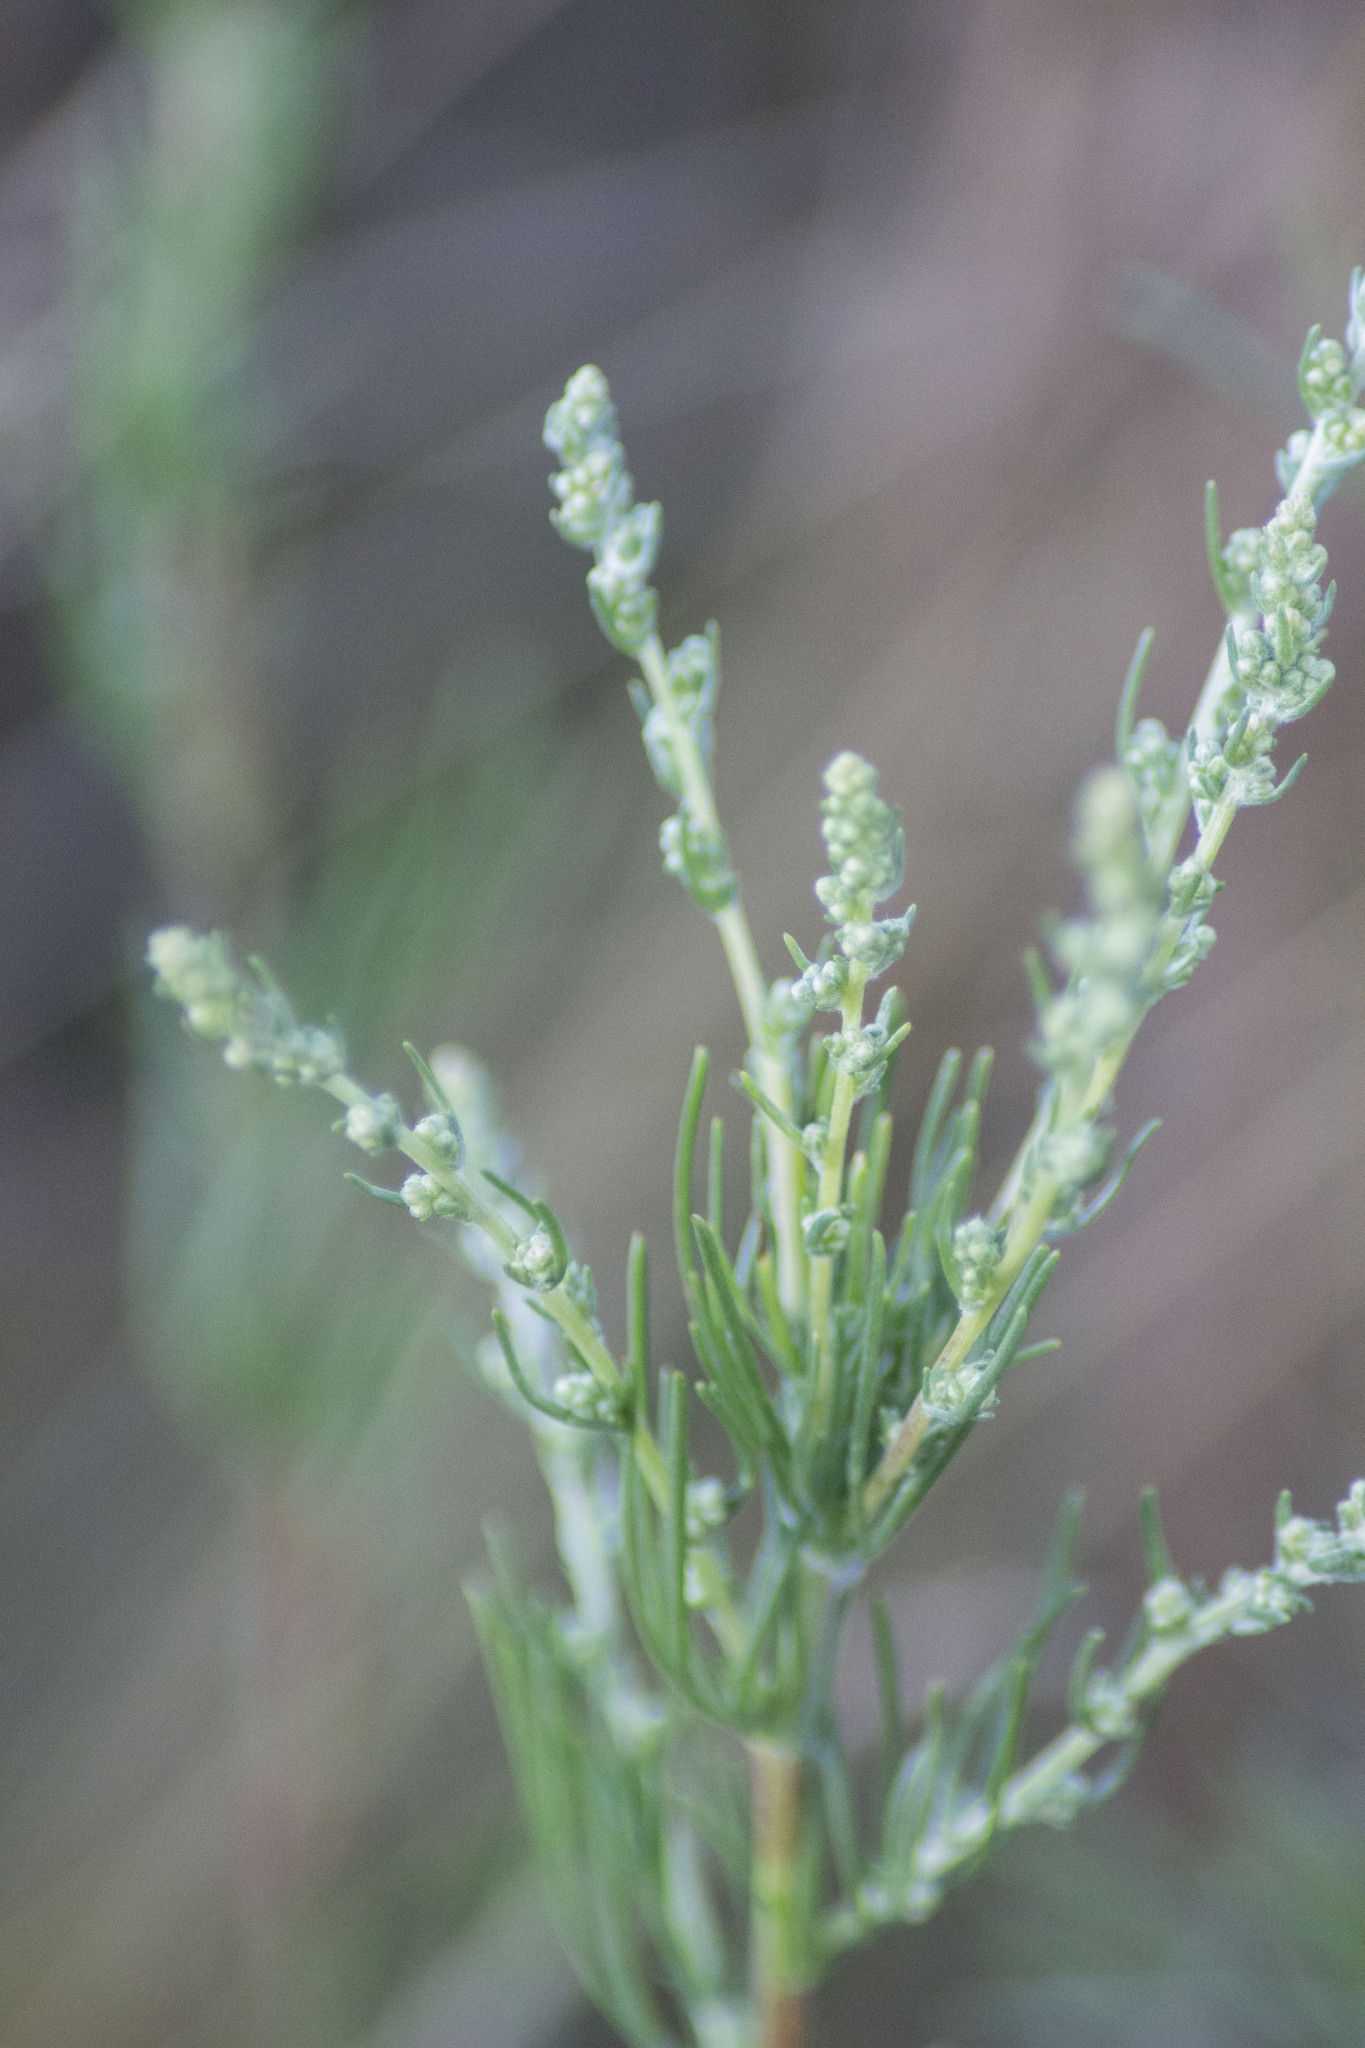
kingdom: Plantae
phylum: Tracheophyta
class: Magnoliopsida
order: Asterales
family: Asteraceae
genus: Artemisia
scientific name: Artemisia campestris
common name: Field wormwood
